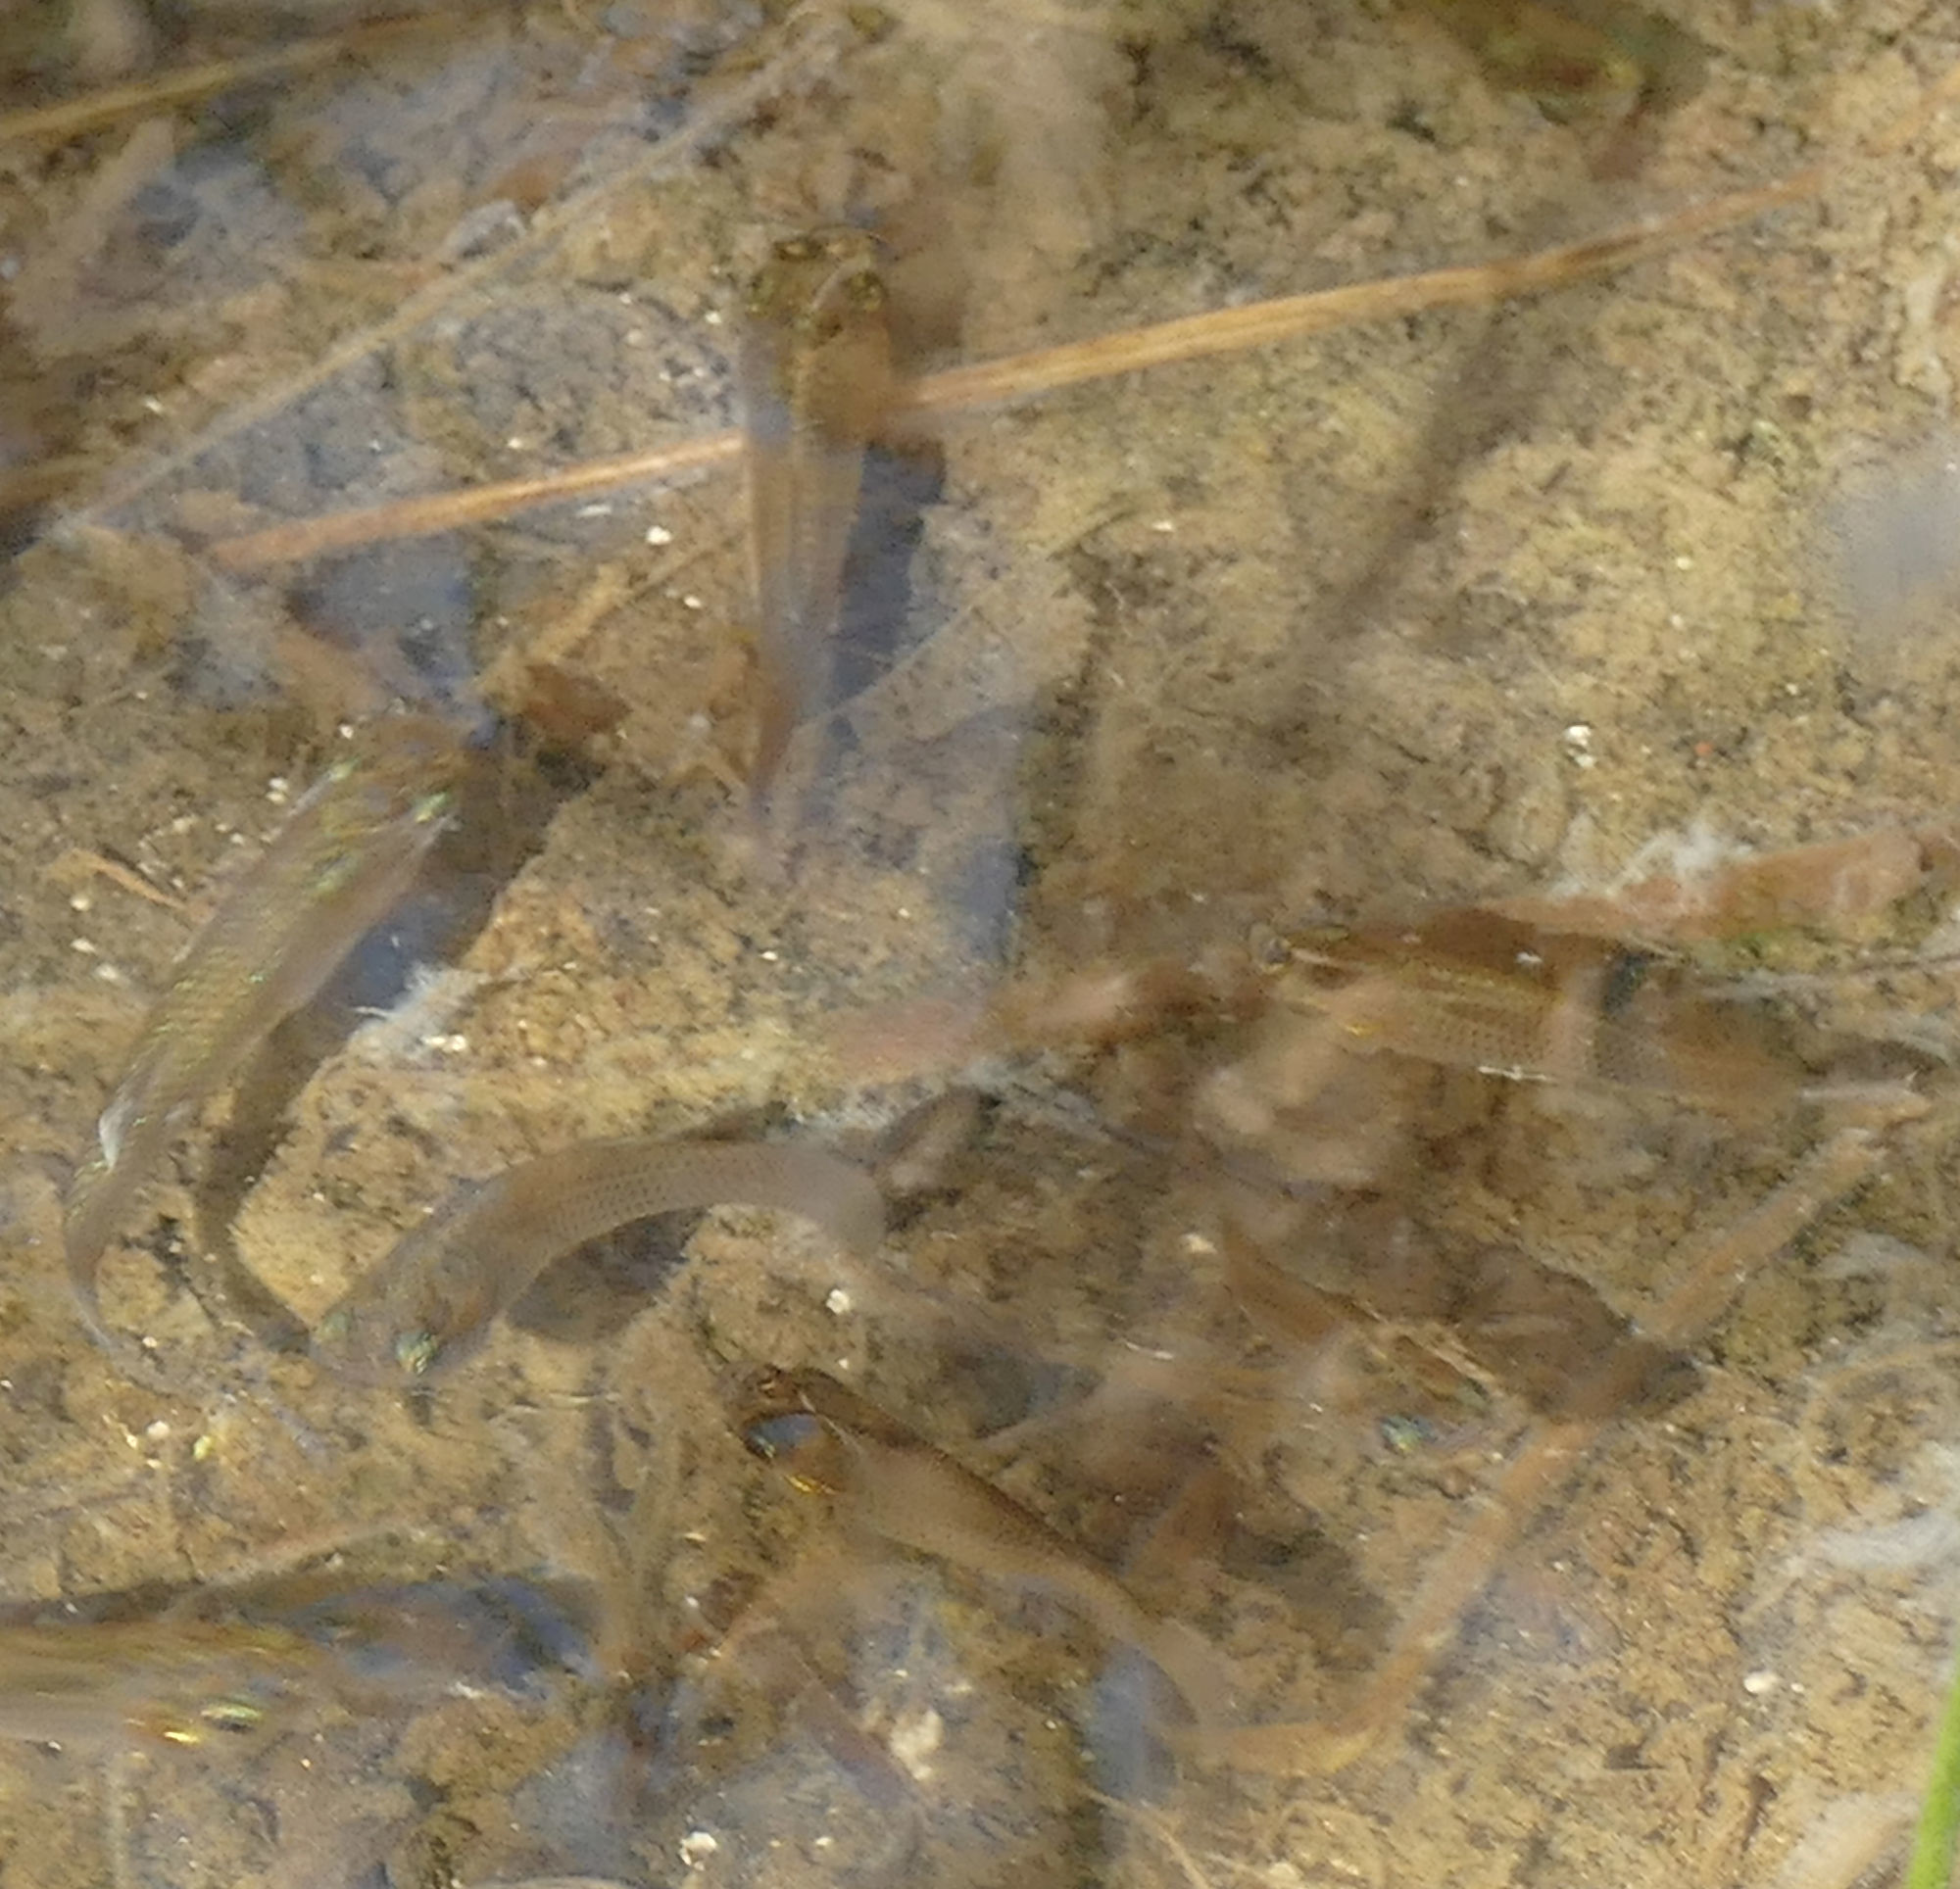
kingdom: Animalia
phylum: Chordata
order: Cyprinodontiformes
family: Poeciliidae
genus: Poecilia
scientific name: Poecilia latipinna
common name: Sailfin molly
